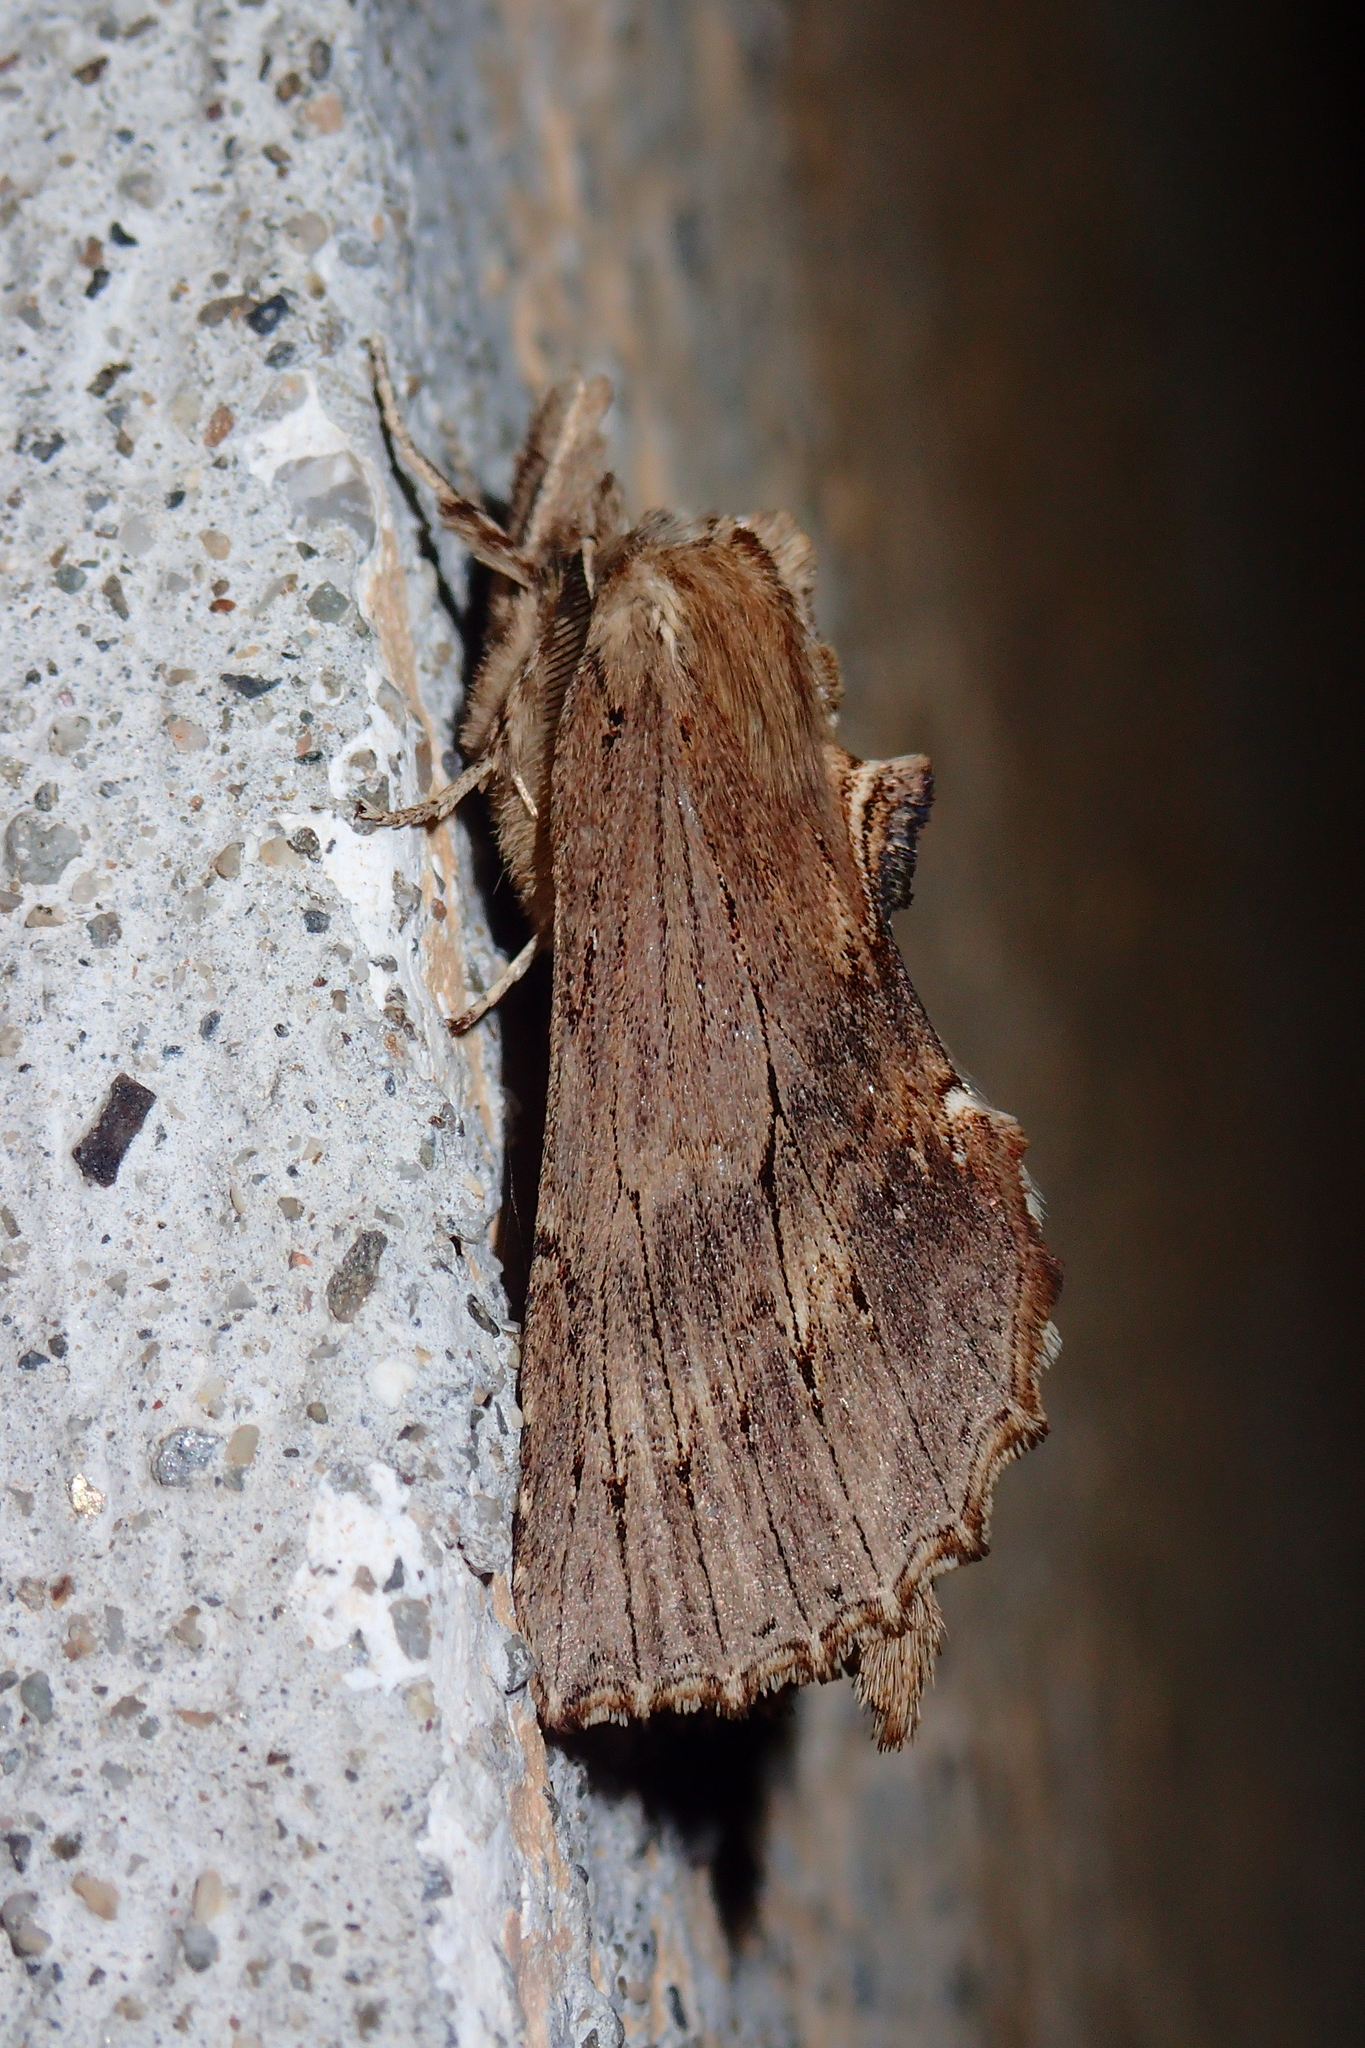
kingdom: Animalia
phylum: Arthropoda
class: Insecta
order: Lepidoptera
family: Notodontidae
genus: Pterostoma
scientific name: Pterostoma palpina
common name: Pale prominent
